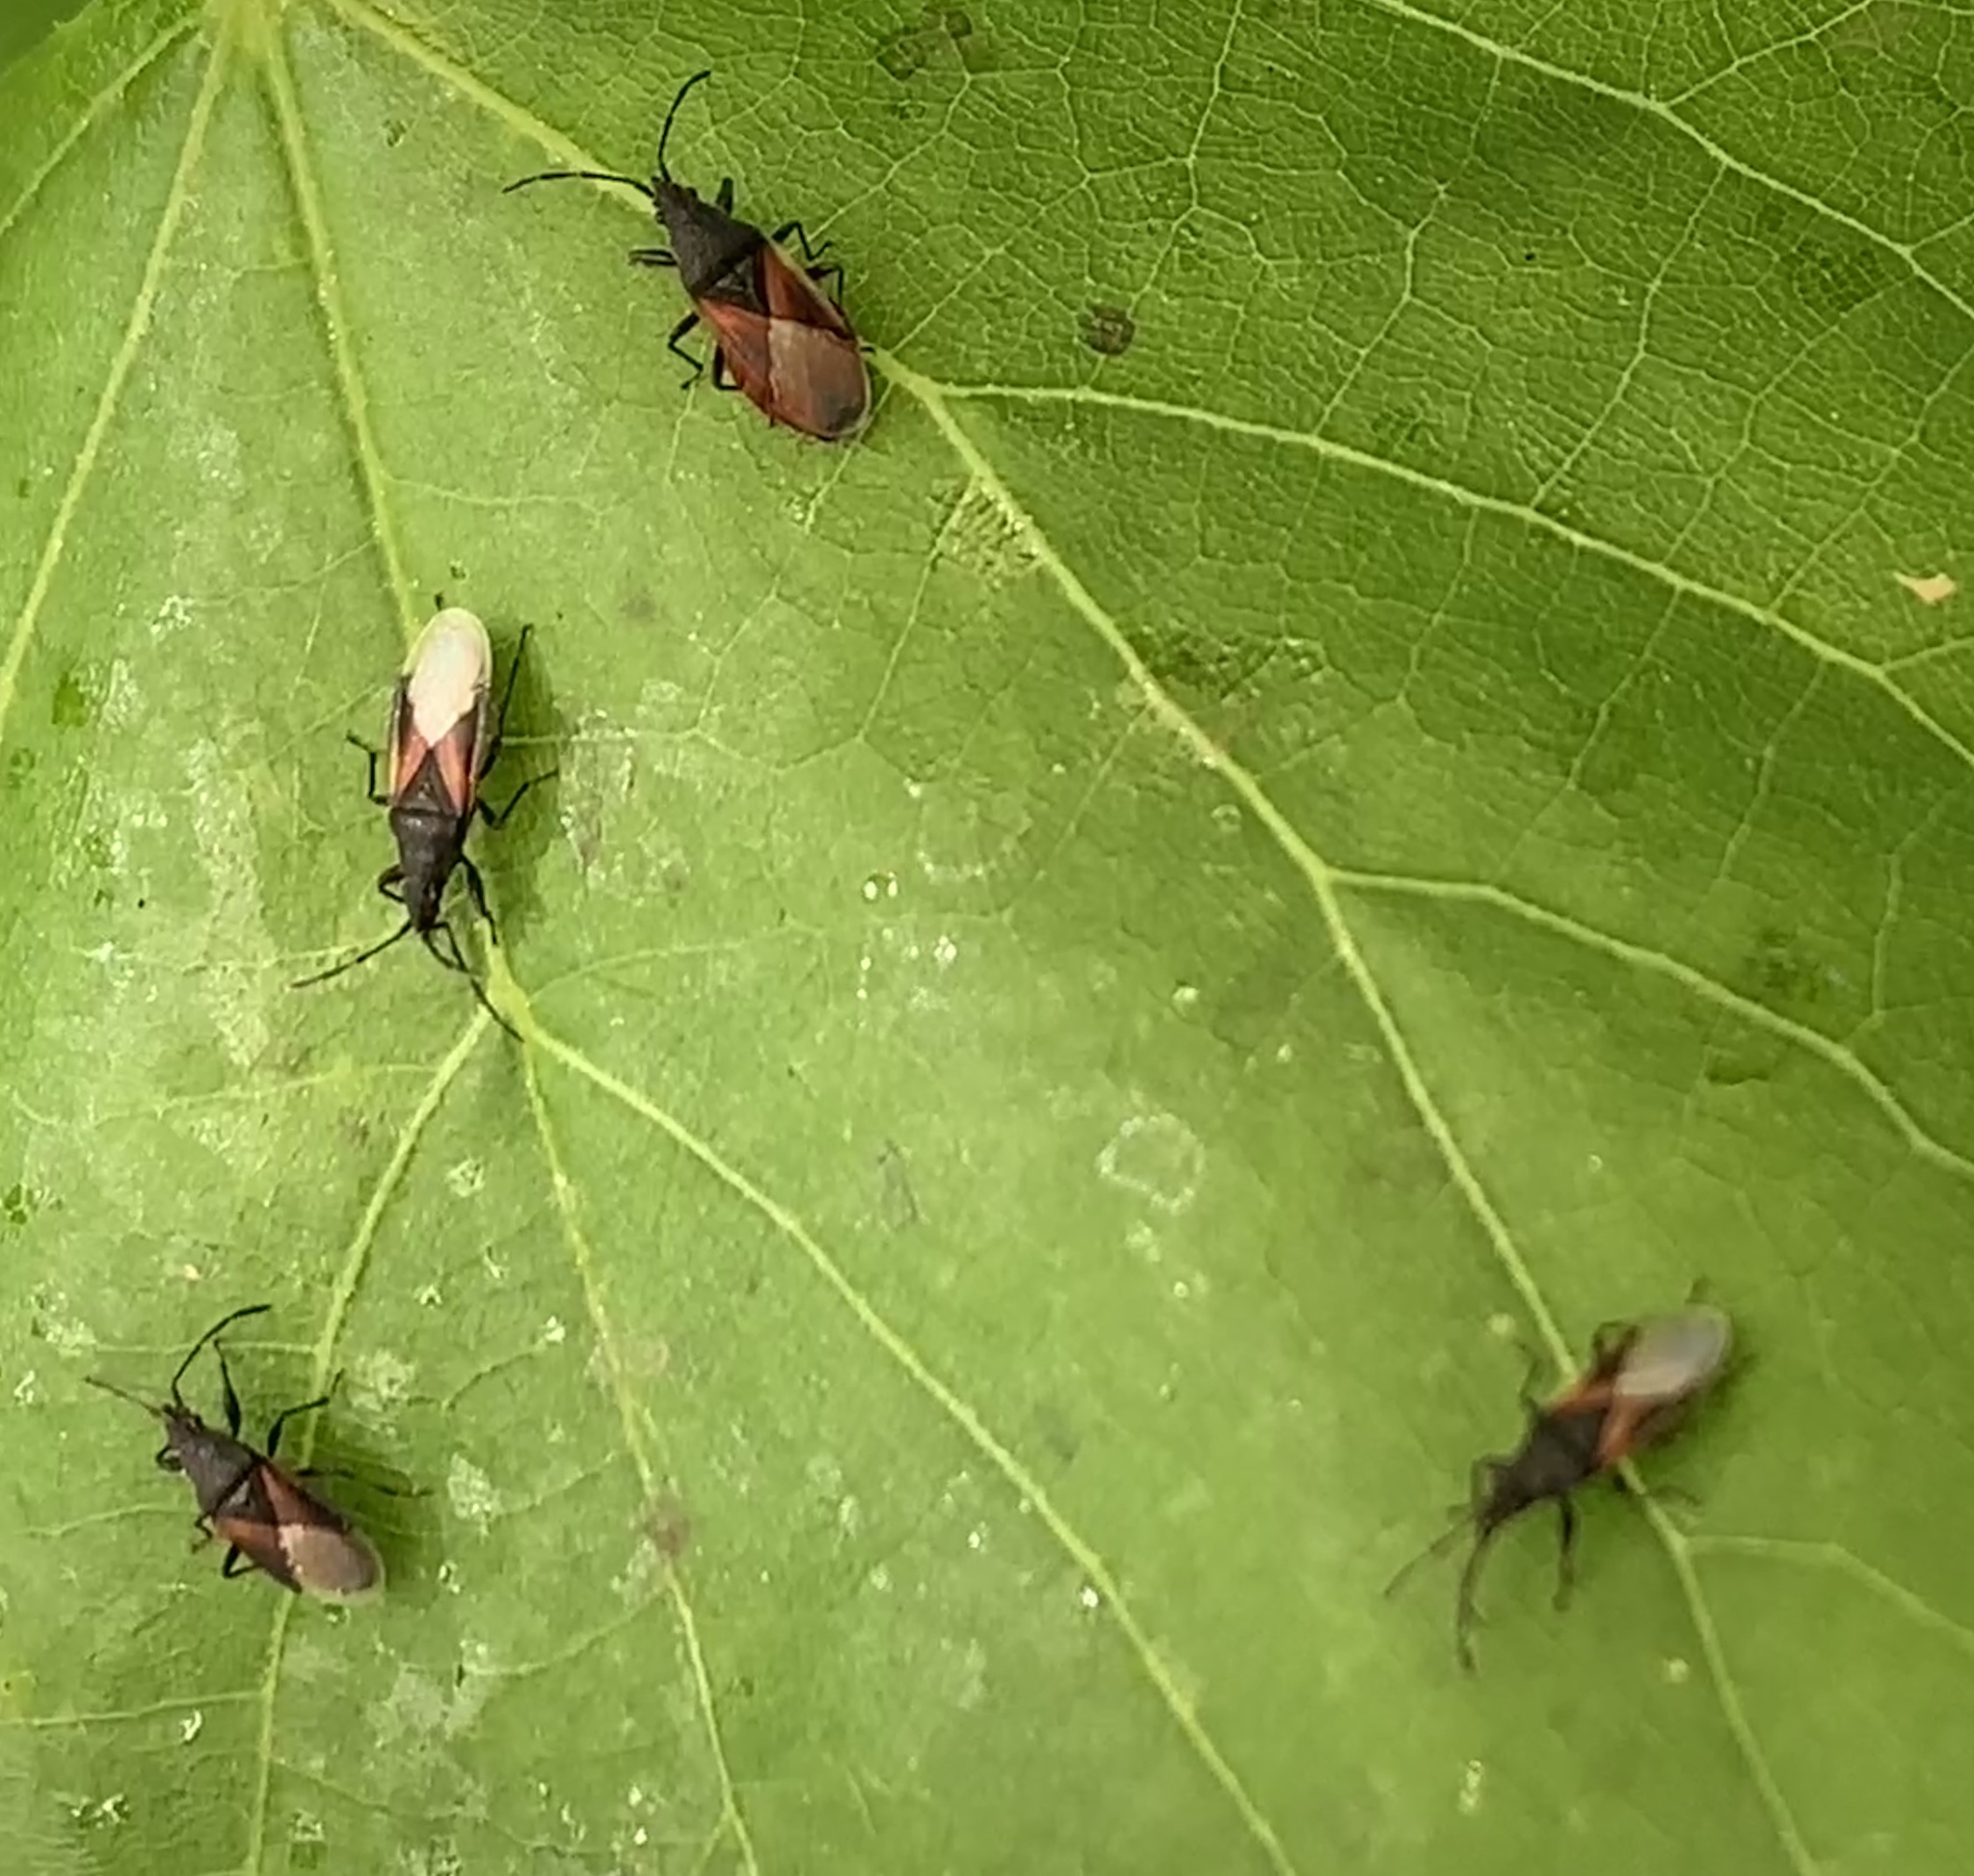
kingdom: Animalia
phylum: Arthropoda
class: Insecta
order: Hemiptera
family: Oxycarenidae
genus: Oxycarenus
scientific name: Oxycarenus lavaterae
